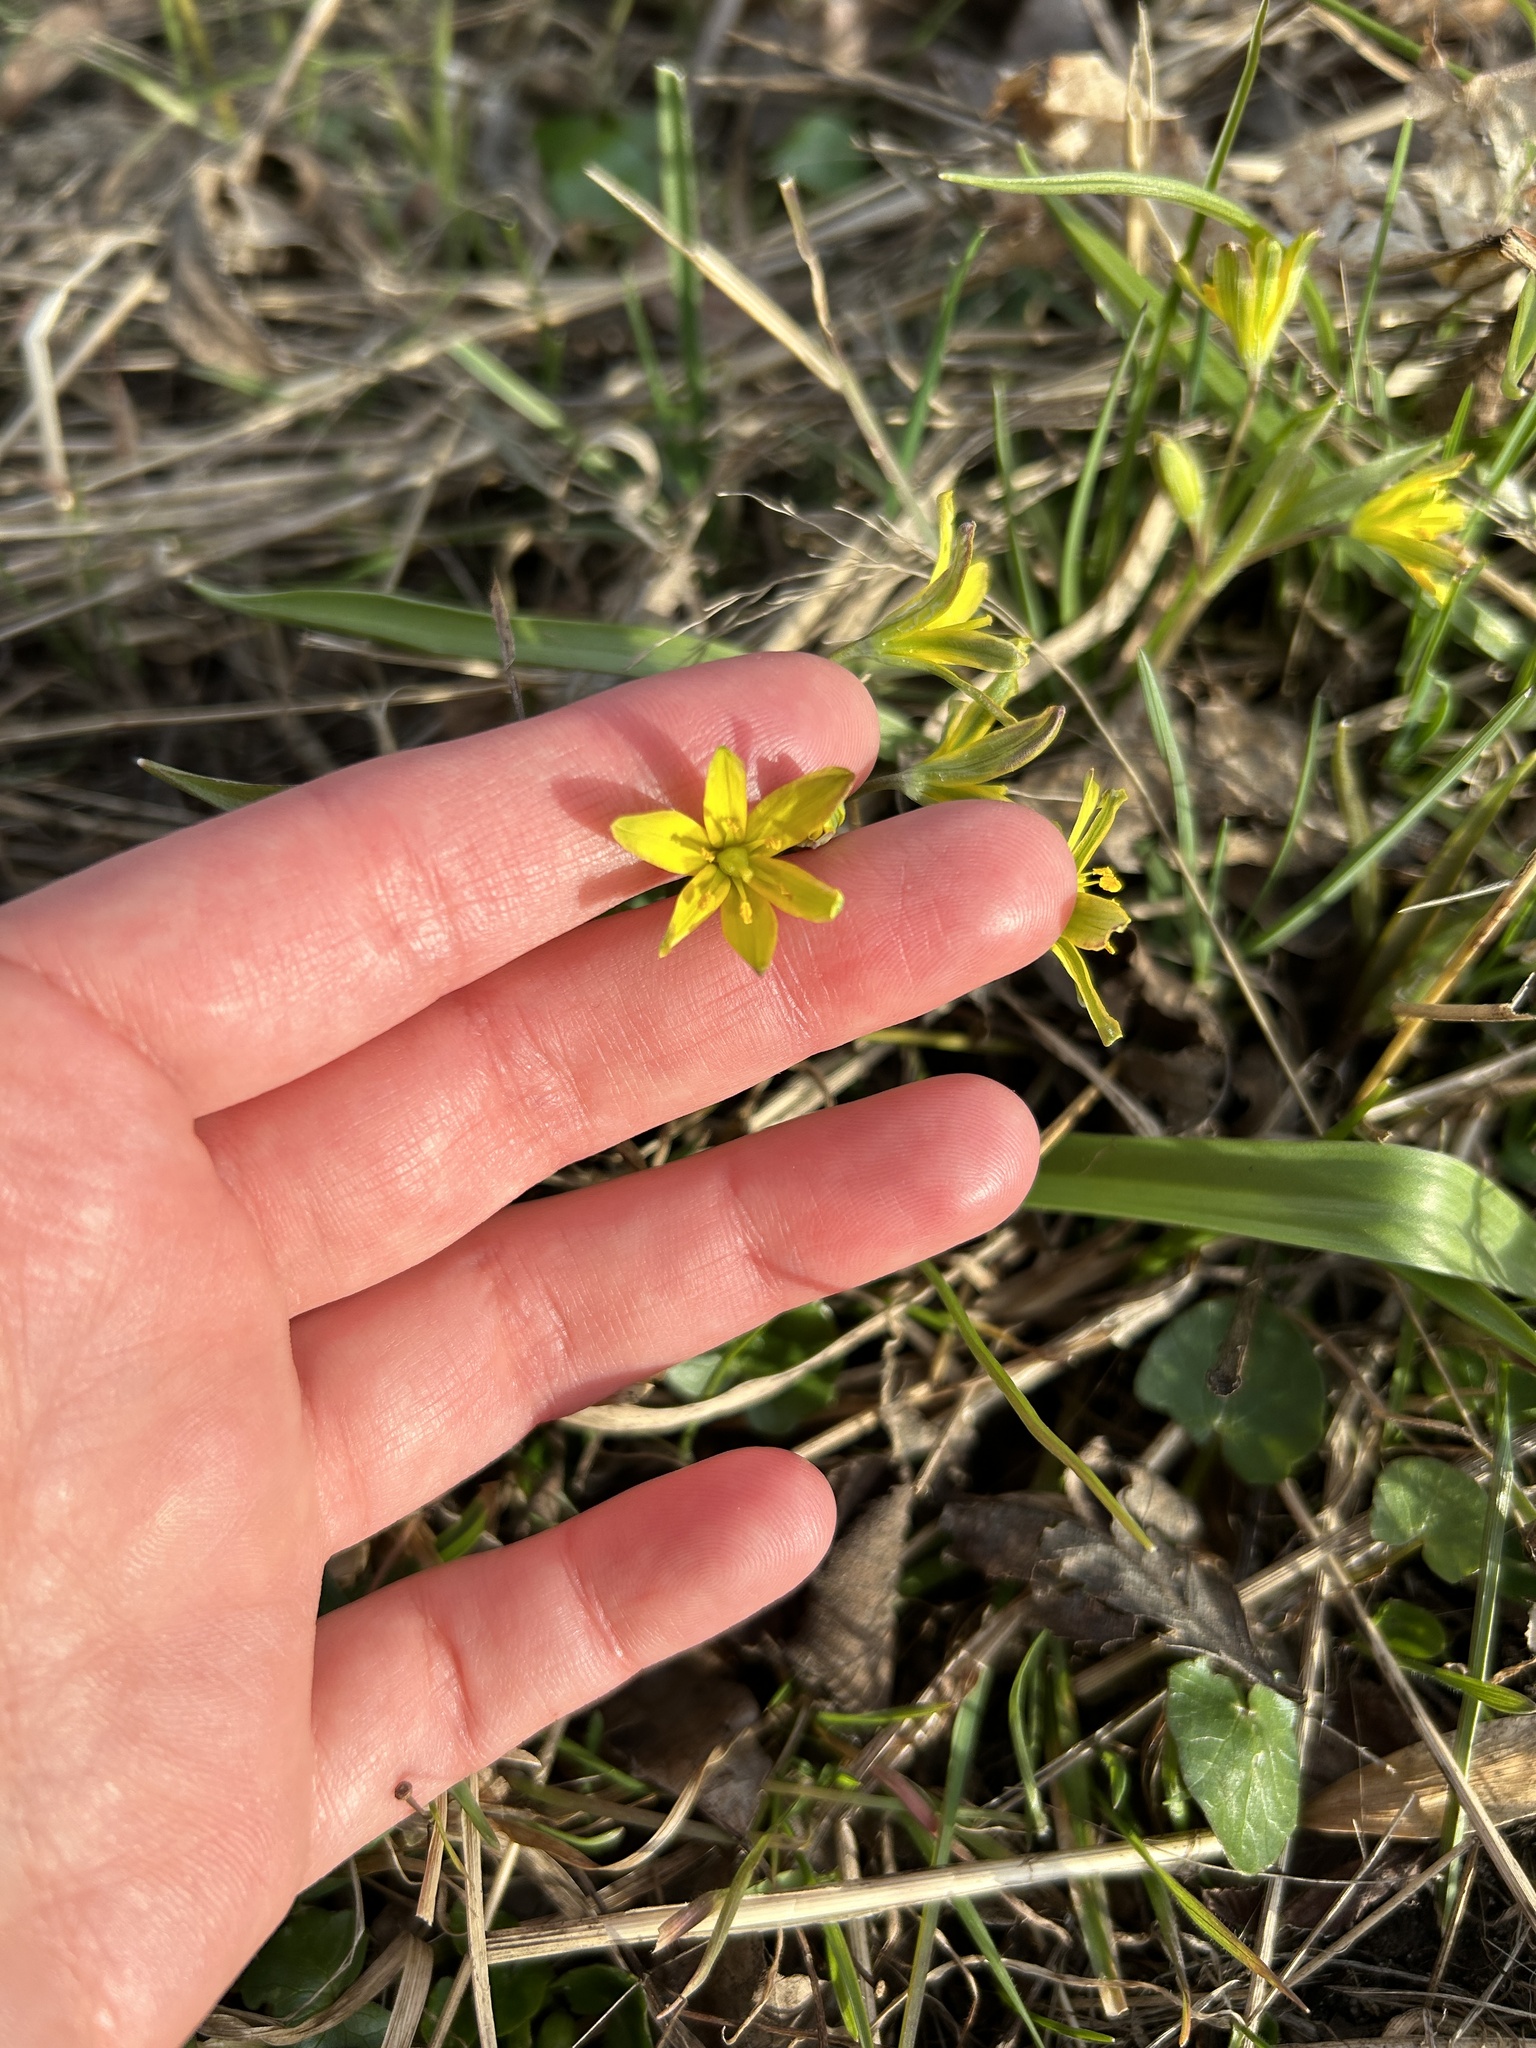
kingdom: Plantae
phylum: Tracheophyta
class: Liliopsida
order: Liliales
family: Liliaceae
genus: Gagea
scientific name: Gagea lutea
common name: Yellow star-of-bethlehem
